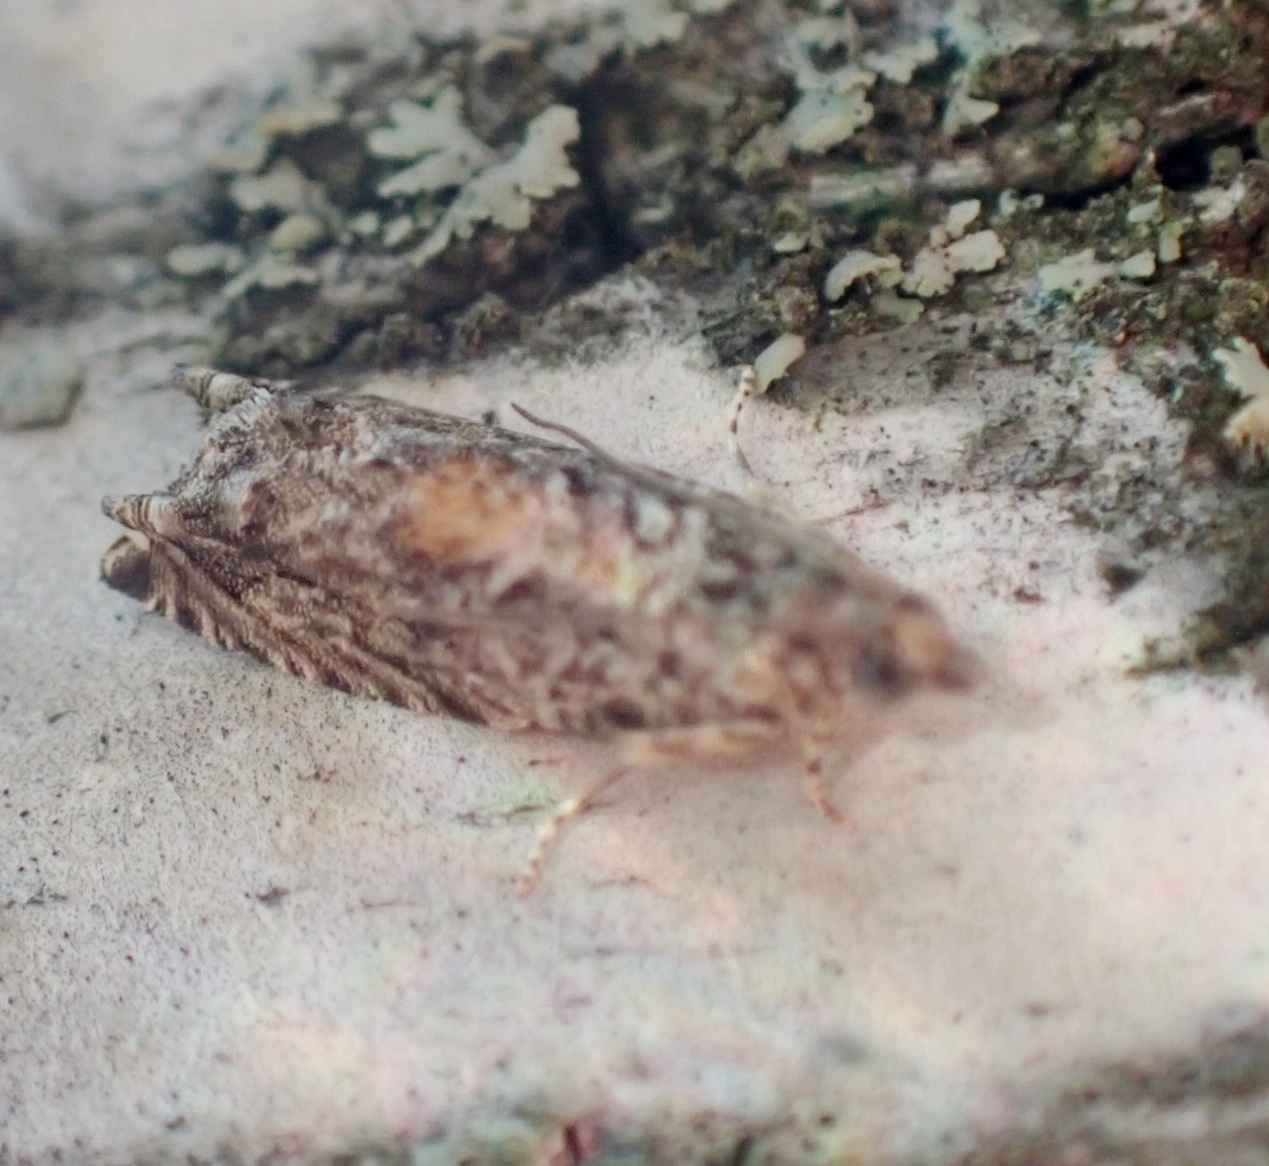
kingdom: Animalia
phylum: Arthropoda
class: Insecta
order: Lepidoptera
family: Tortricidae
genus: Epinotia
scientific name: Epinotia nisella
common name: Grey poplar bell
